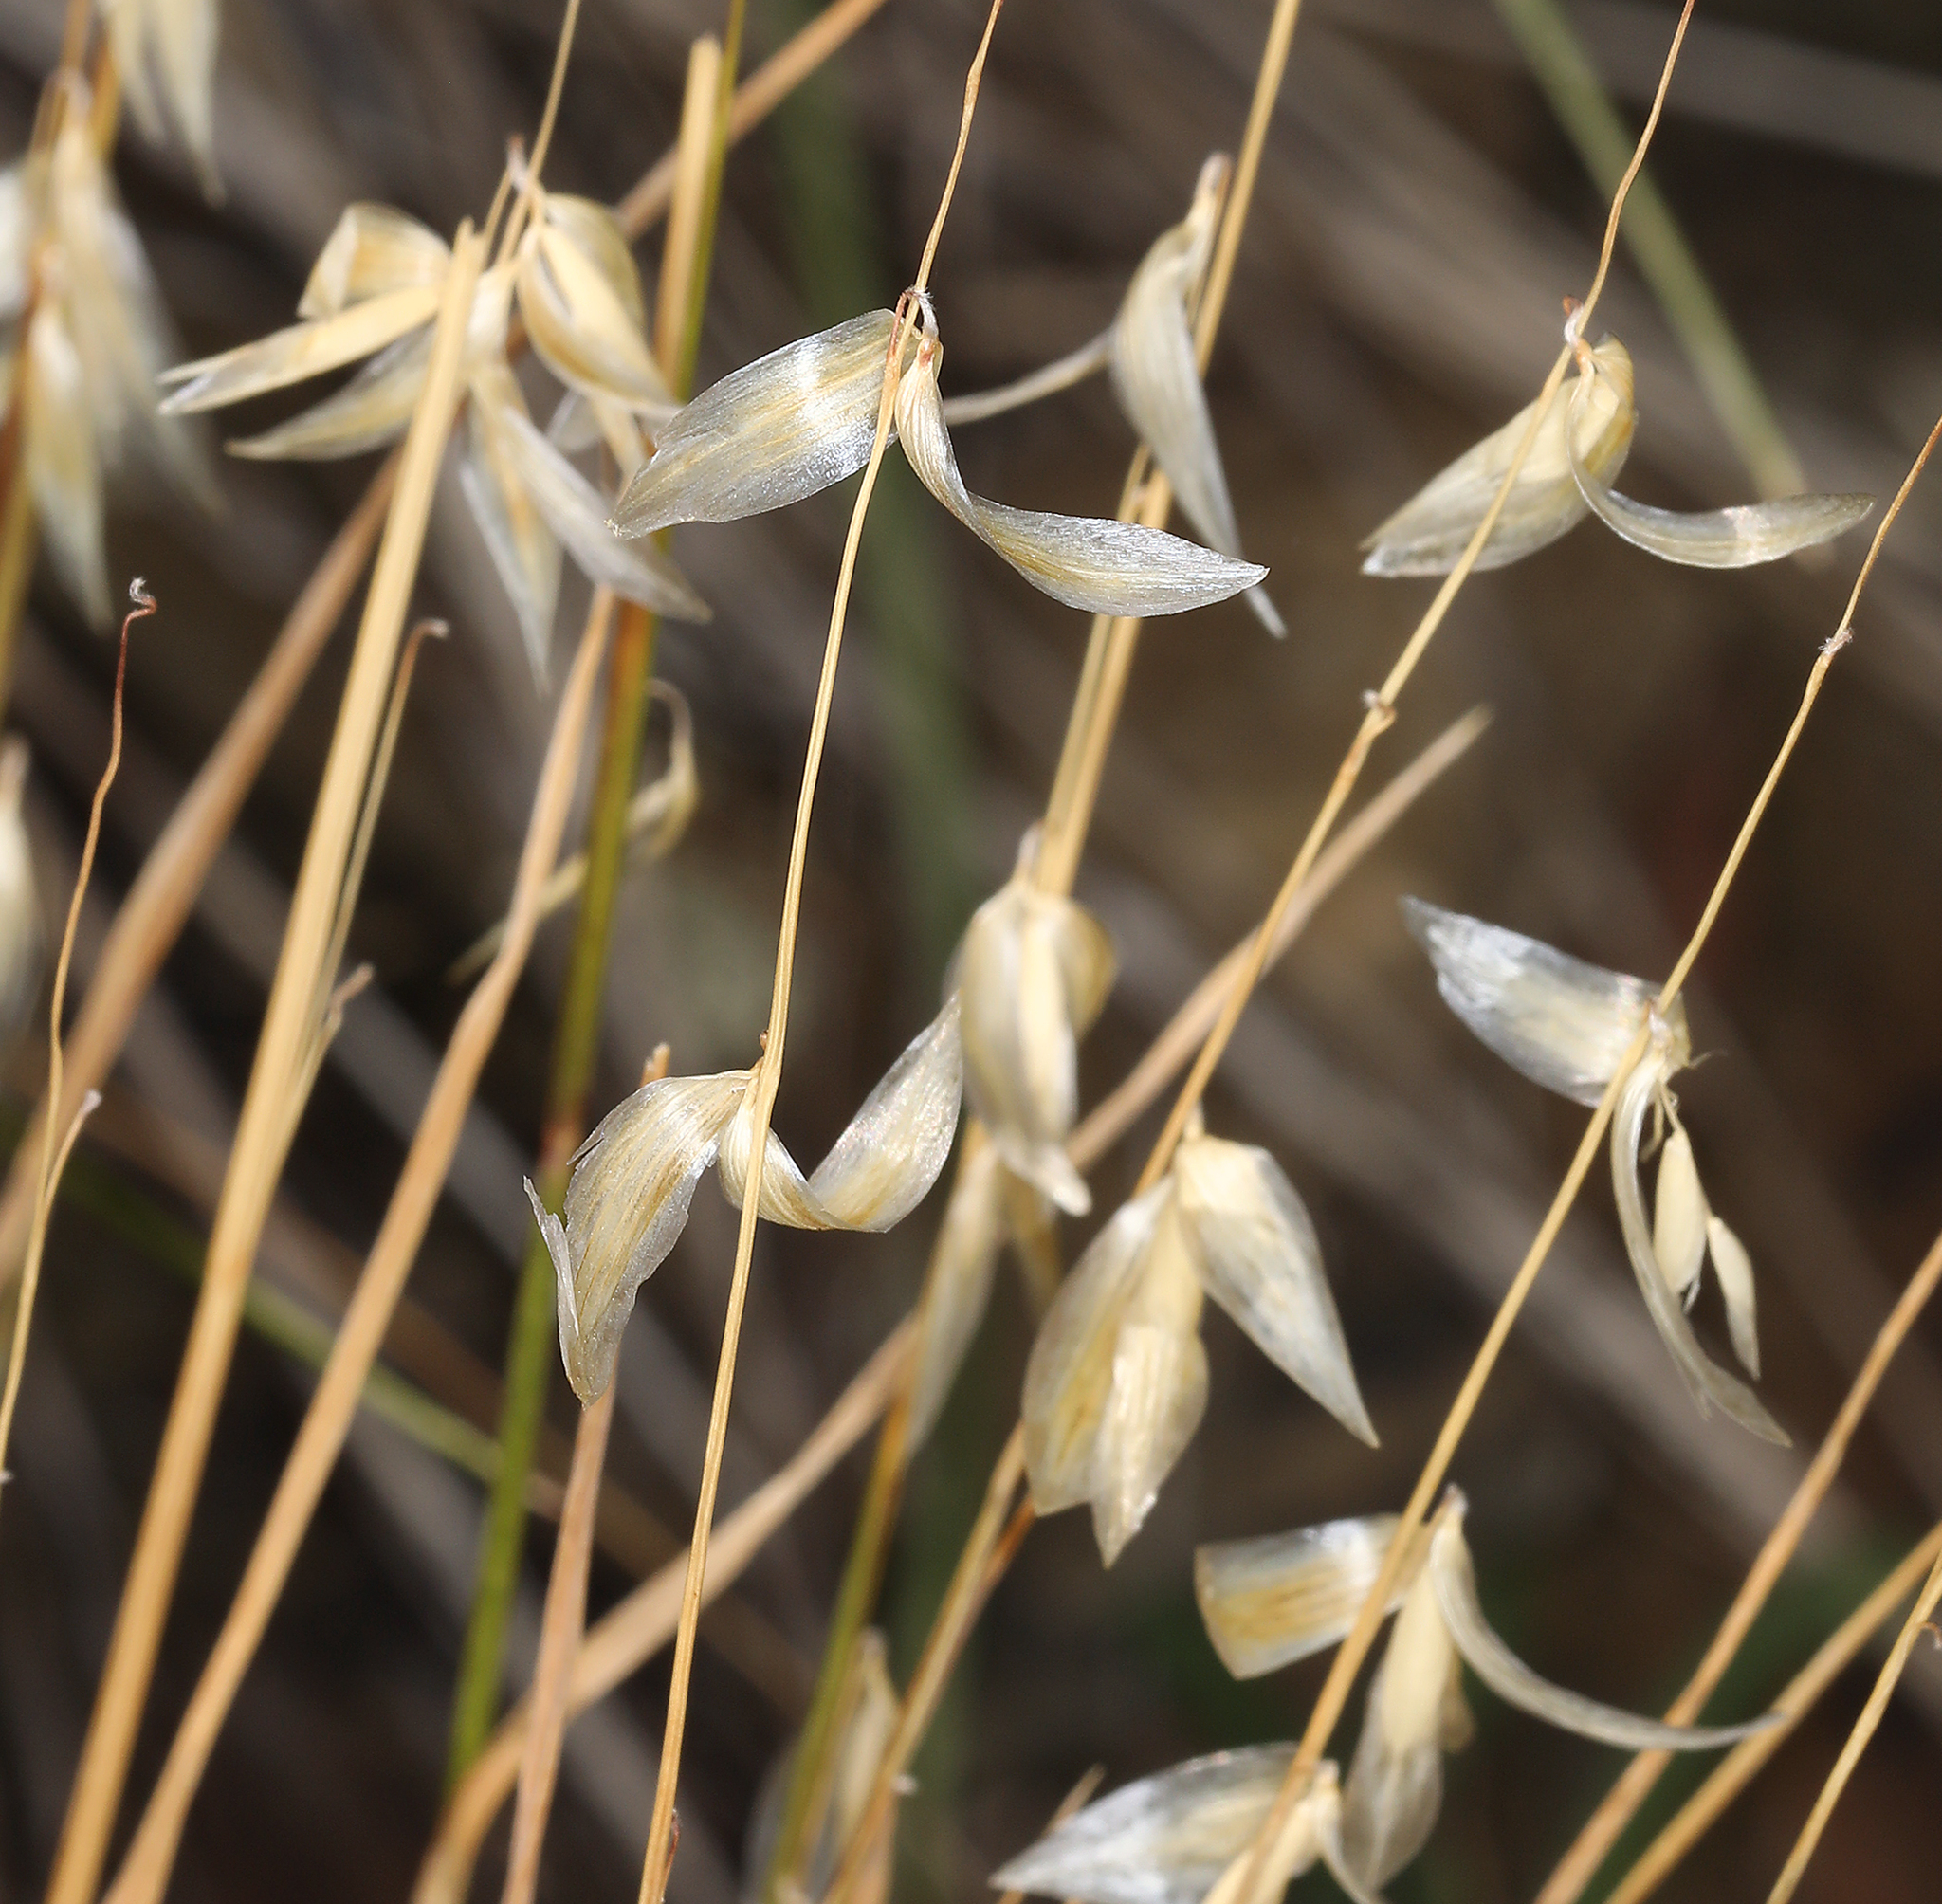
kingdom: Plantae
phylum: Tracheophyta
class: Liliopsida
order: Poales
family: Poaceae
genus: Melica
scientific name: Melica stricta
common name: Rock melic
